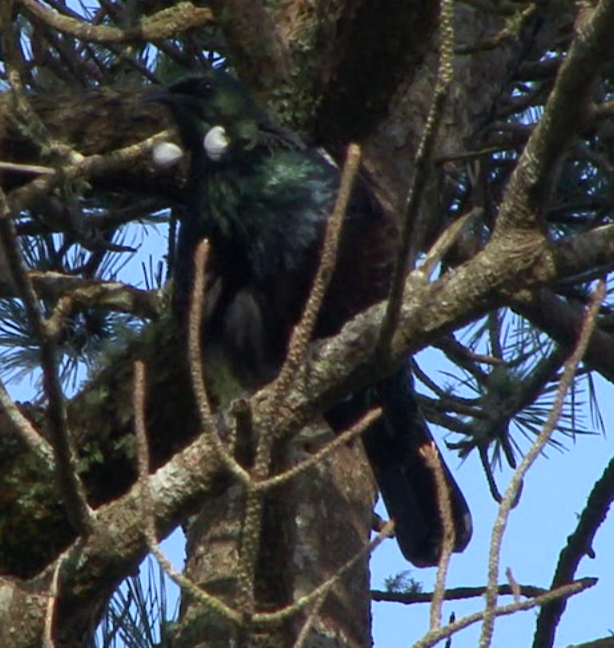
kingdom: Animalia
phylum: Chordata
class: Aves
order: Passeriformes
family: Meliphagidae
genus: Prosthemadera
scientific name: Prosthemadera novaeseelandiae
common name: Tui
